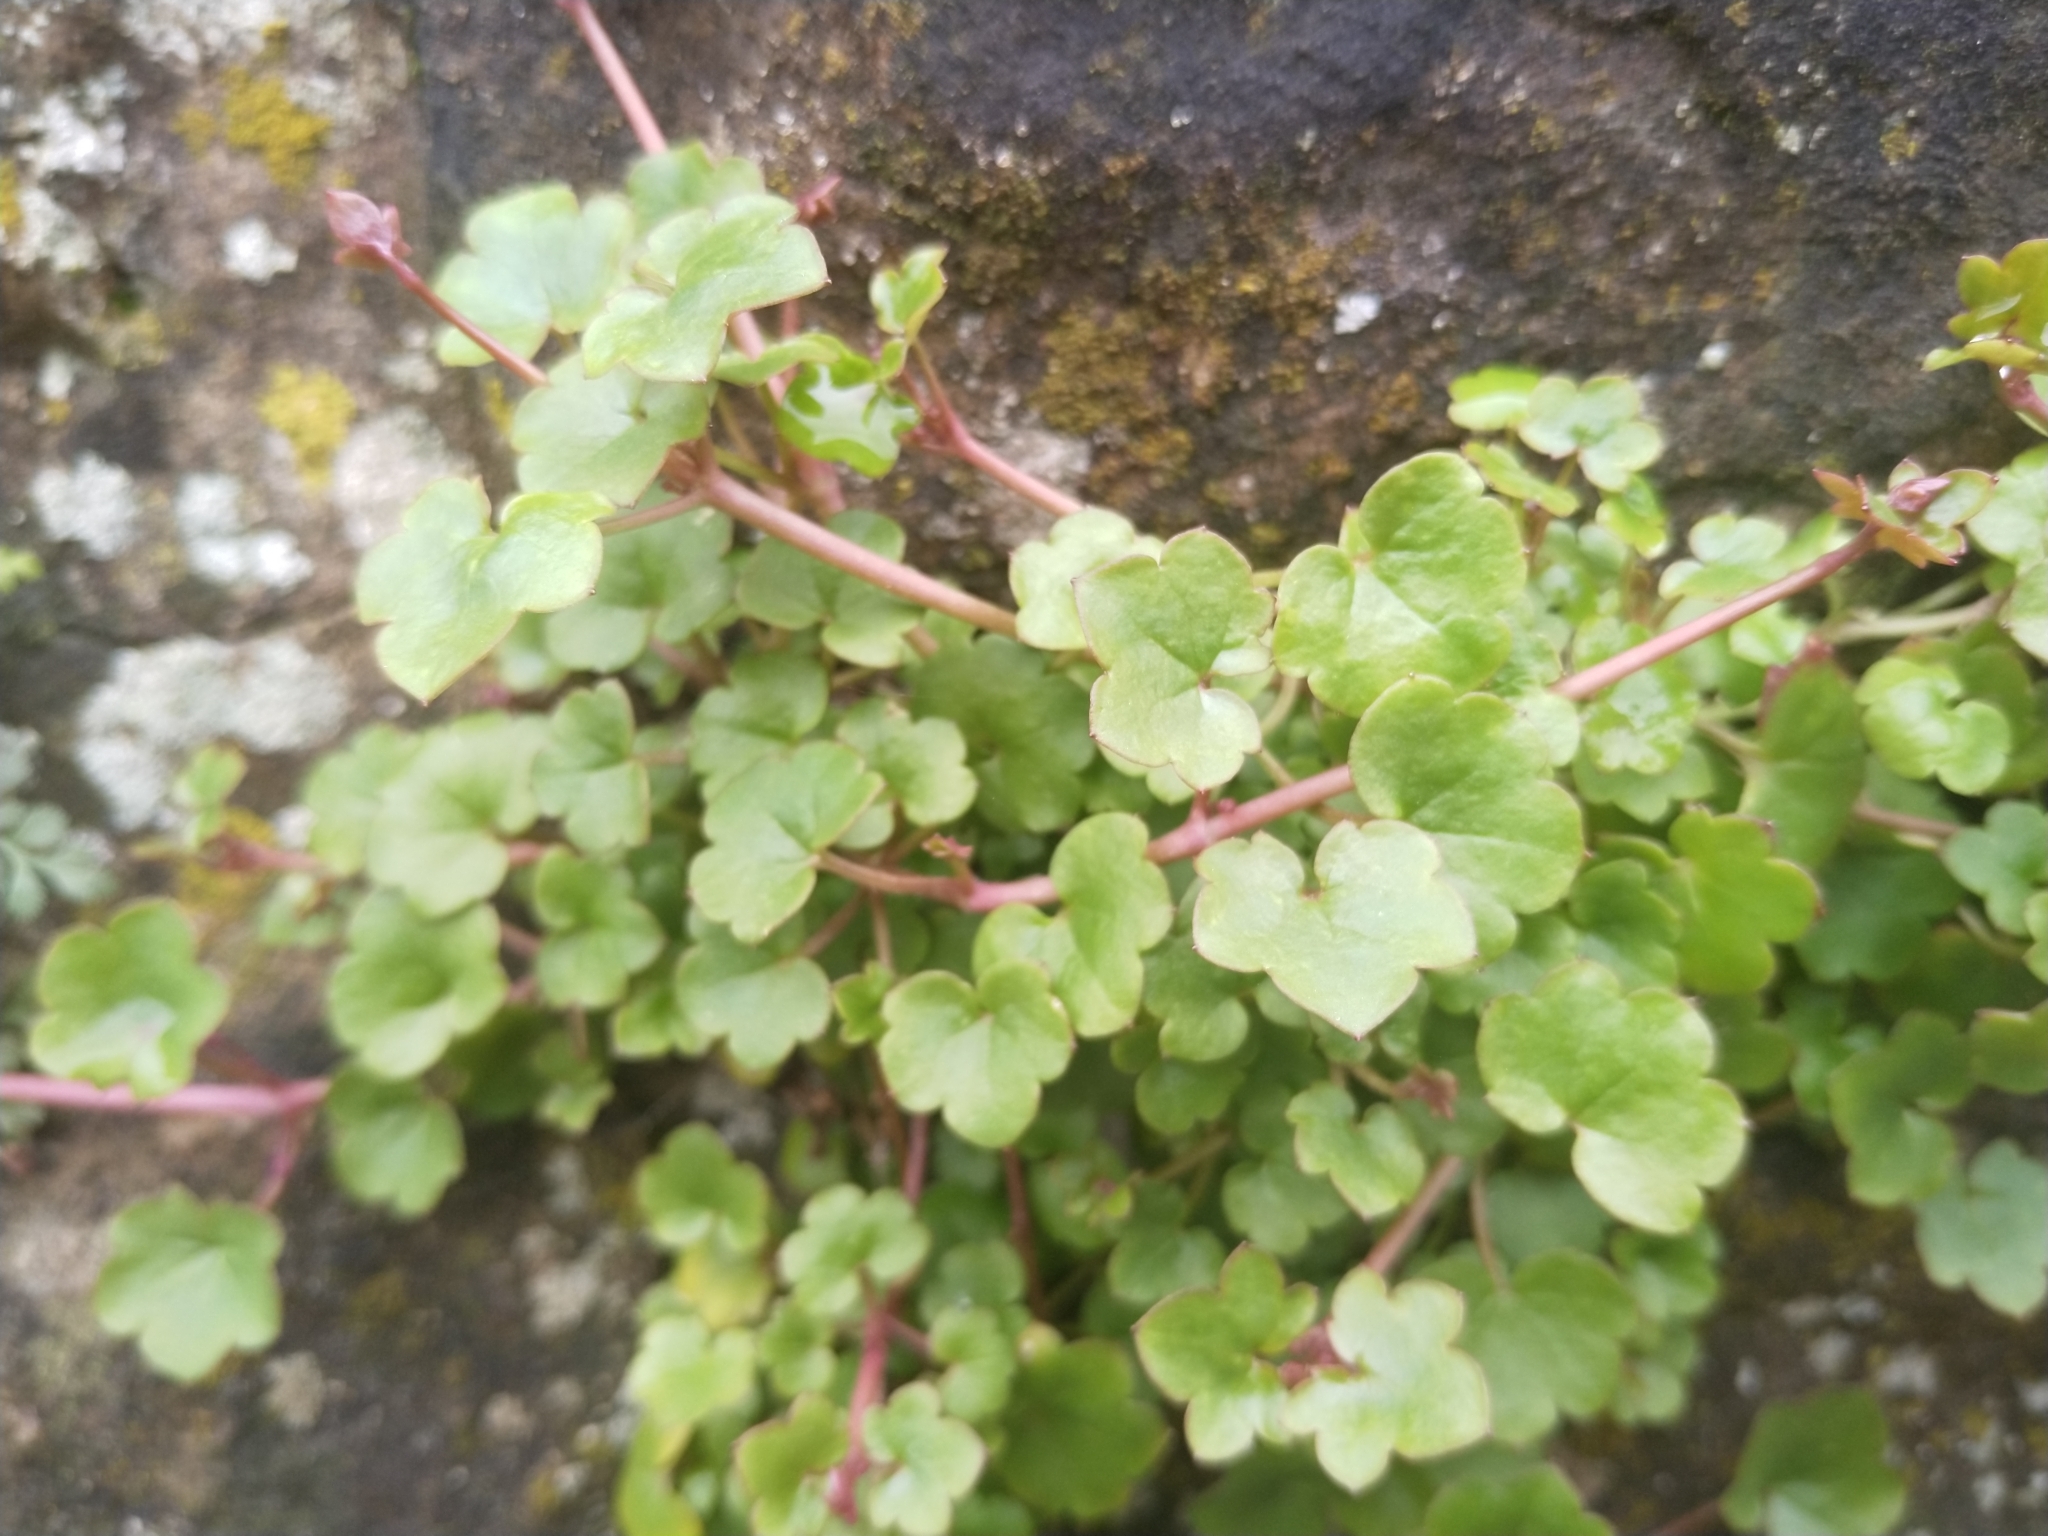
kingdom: Plantae
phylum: Tracheophyta
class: Magnoliopsida
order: Lamiales
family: Plantaginaceae
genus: Cymbalaria
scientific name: Cymbalaria muralis
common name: Ivy-leaved toadflax
